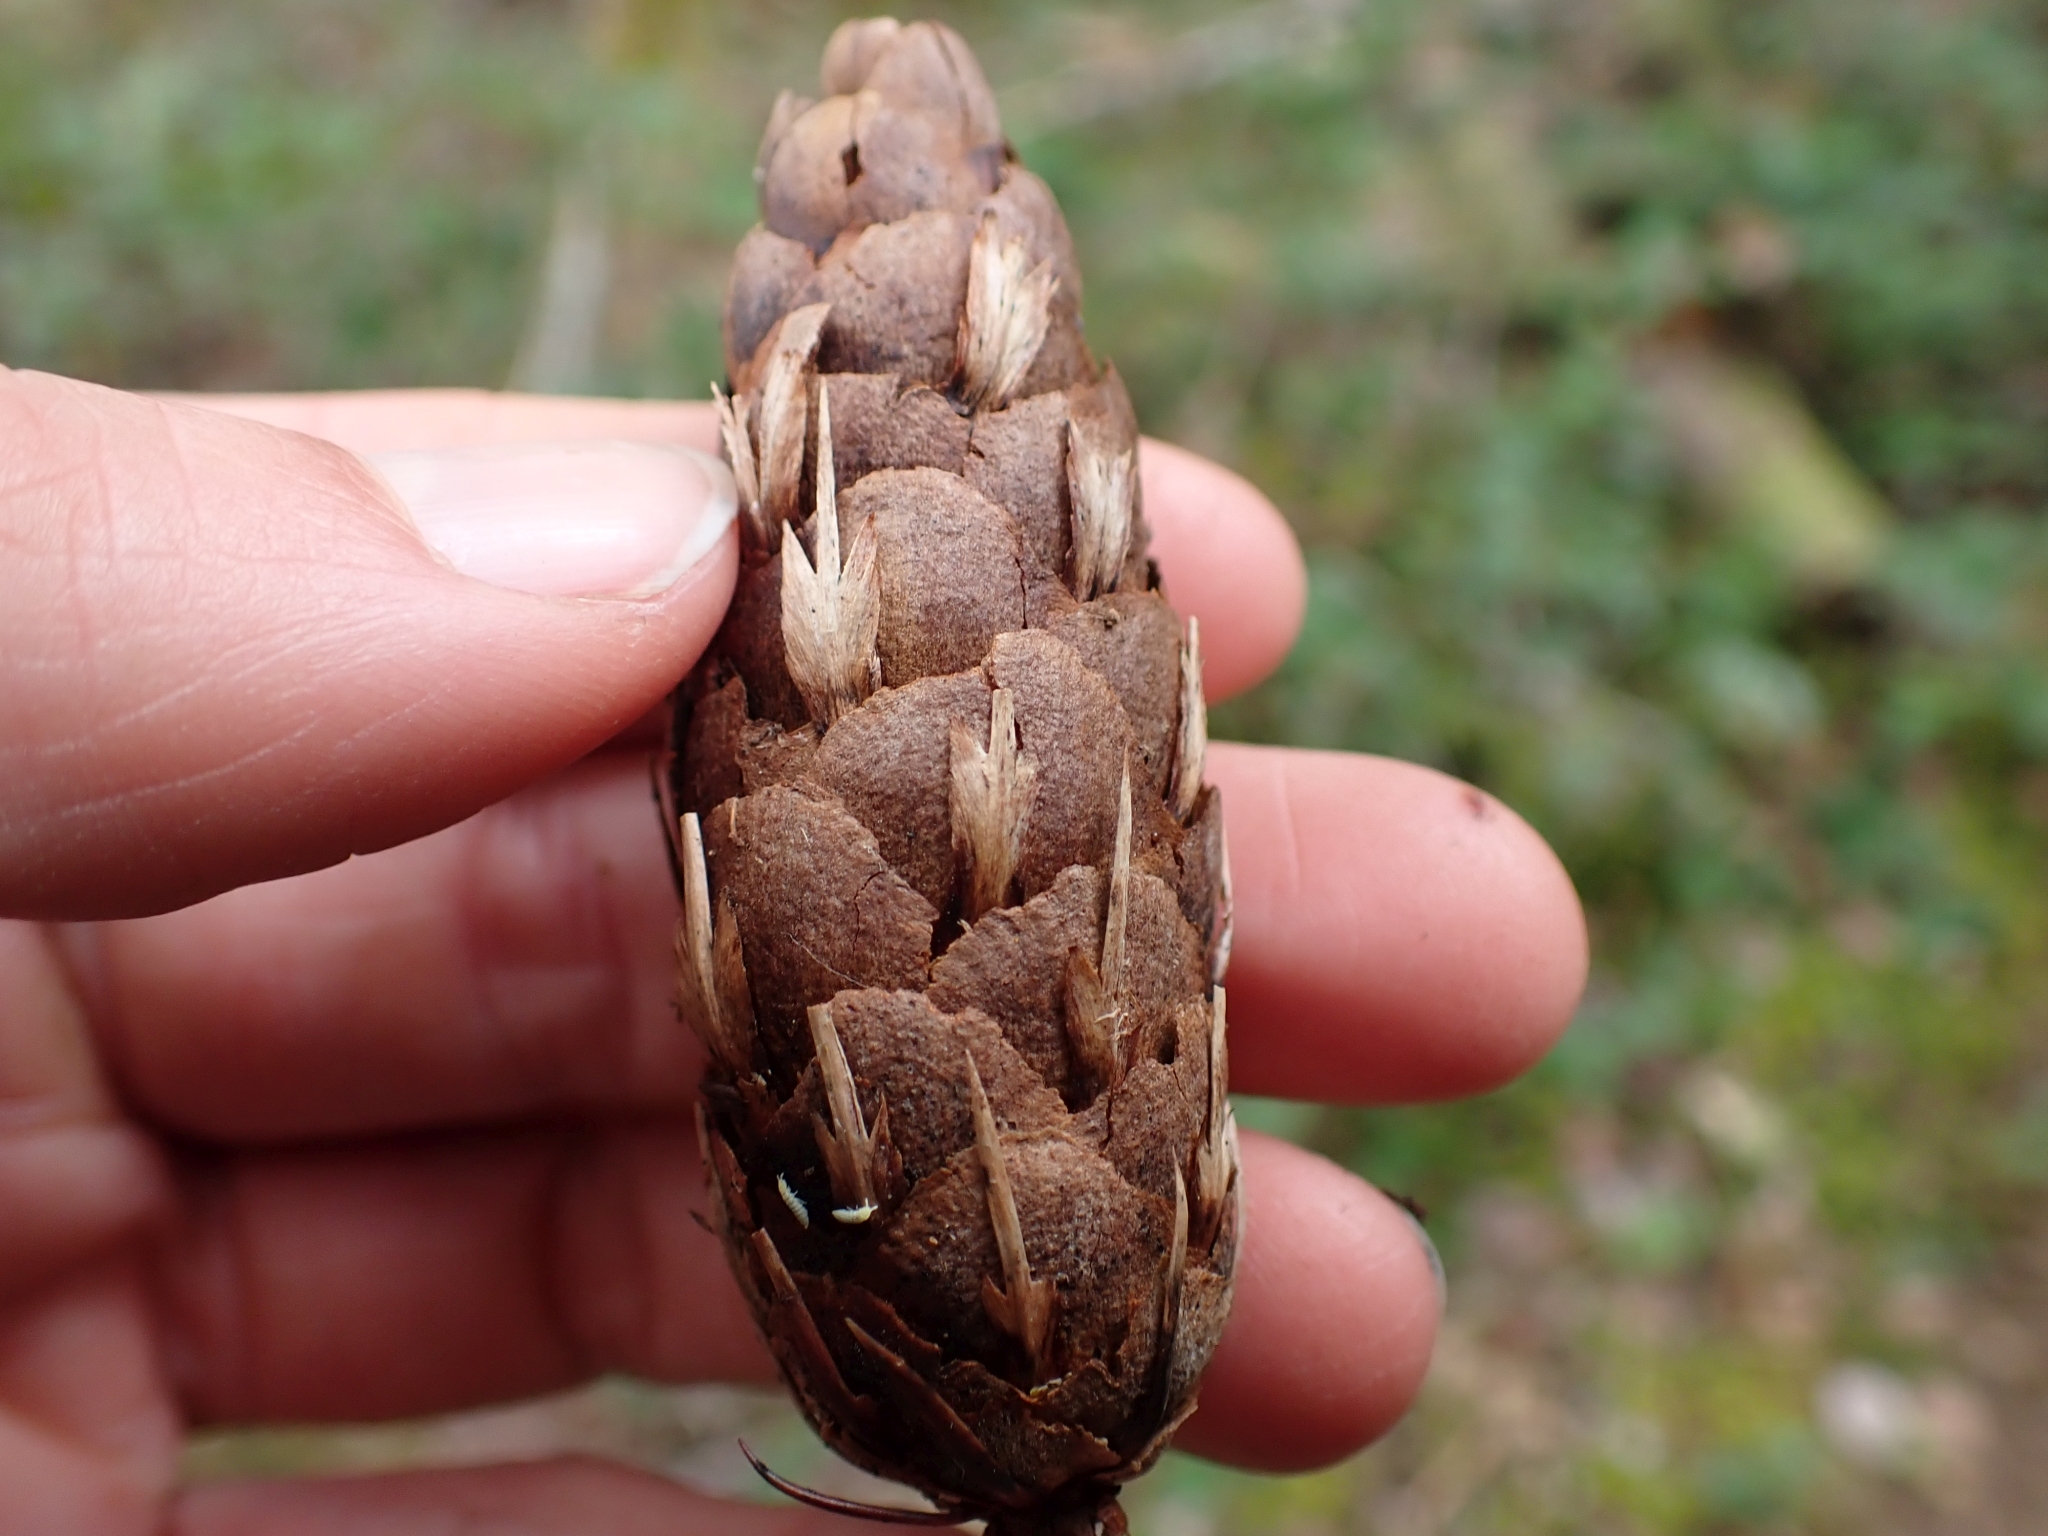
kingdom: Plantae
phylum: Tracheophyta
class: Pinopsida
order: Pinales
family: Pinaceae
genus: Pseudotsuga
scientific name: Pseudotsuga menziesii
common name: Douglas fir
